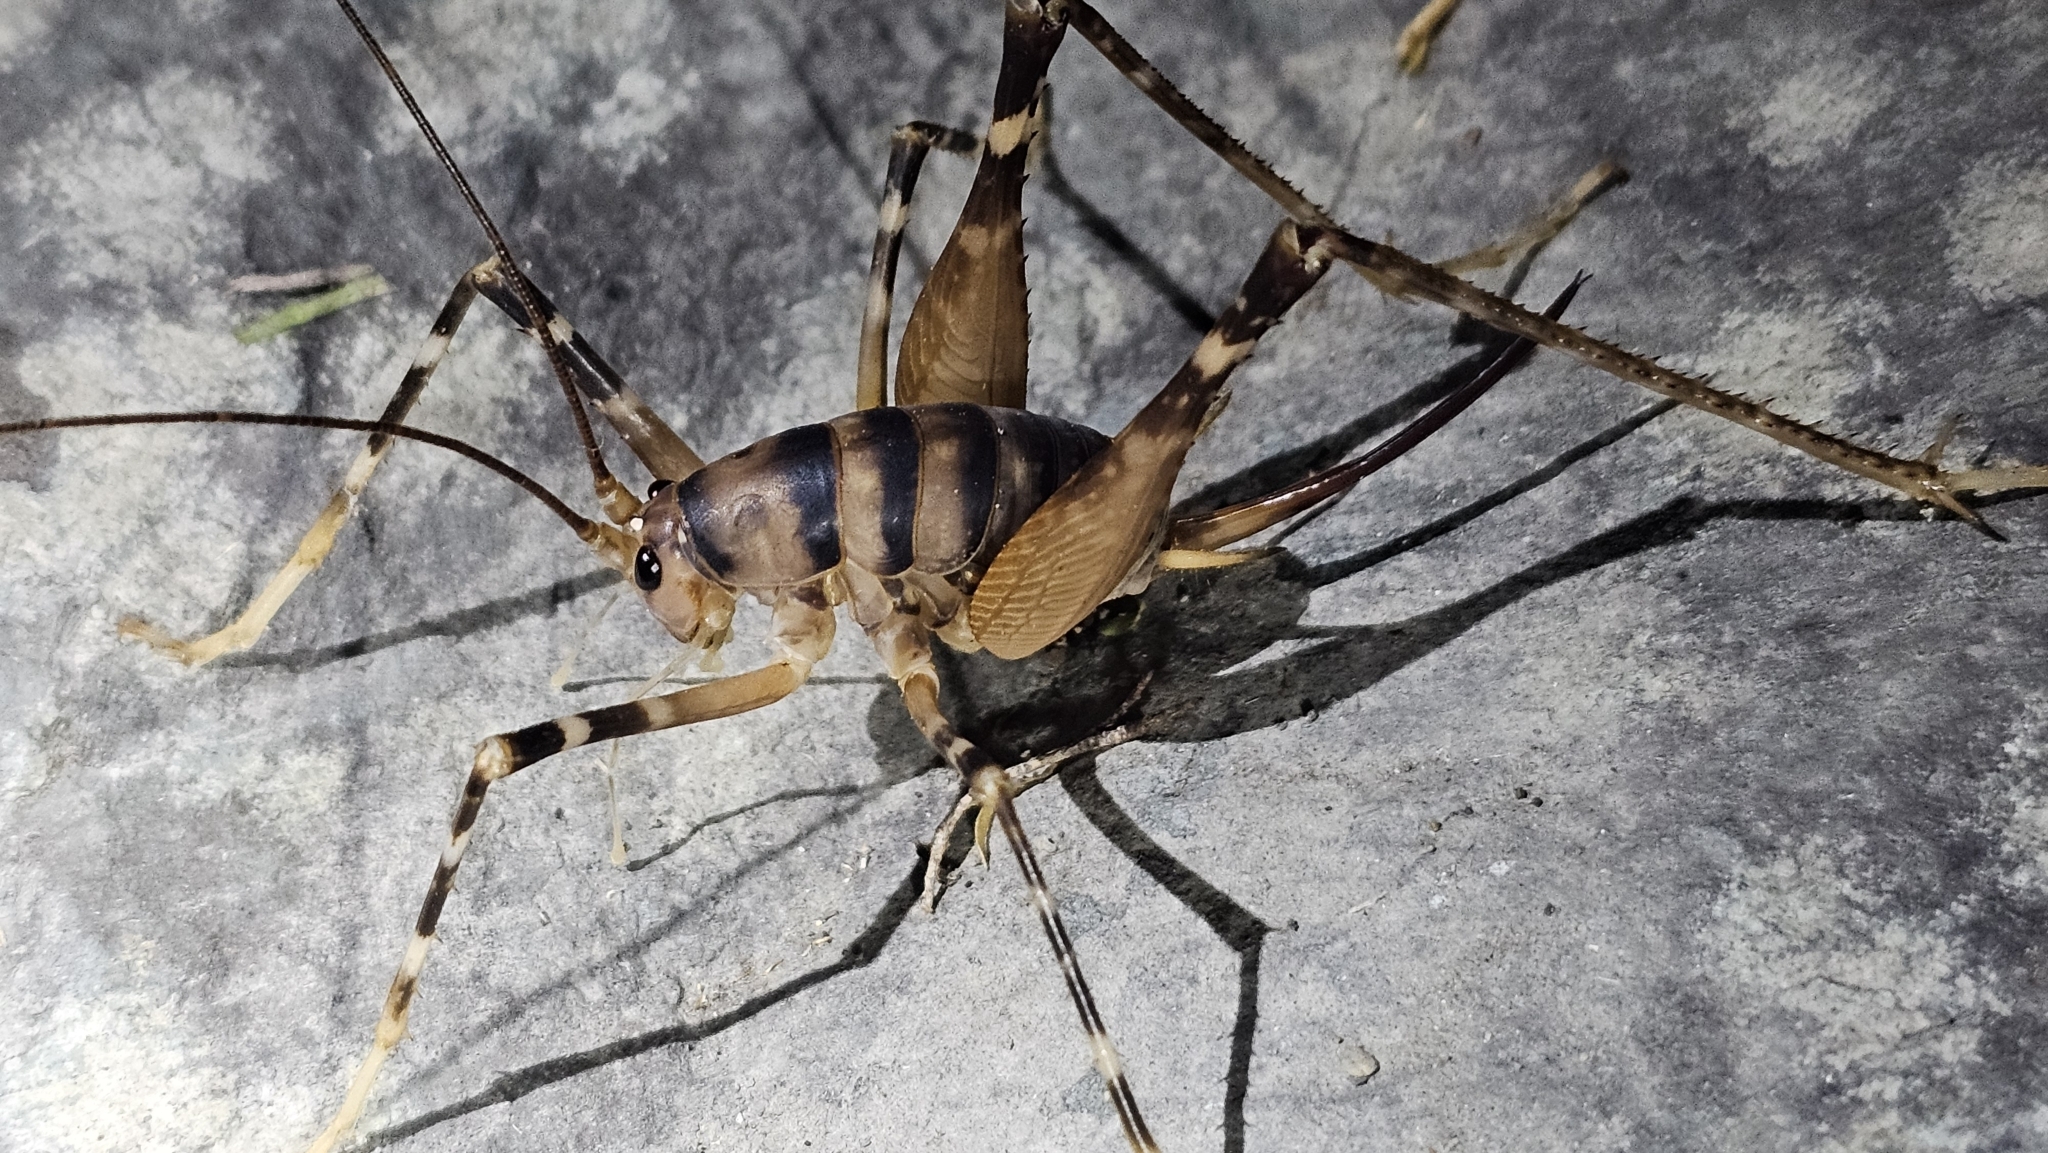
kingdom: Animalia
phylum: Arthropoda
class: Insecta
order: Orthoptera
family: Rhaphidophoridae
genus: Pachyrhamma
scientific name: Pachyrhamma edwardsii
